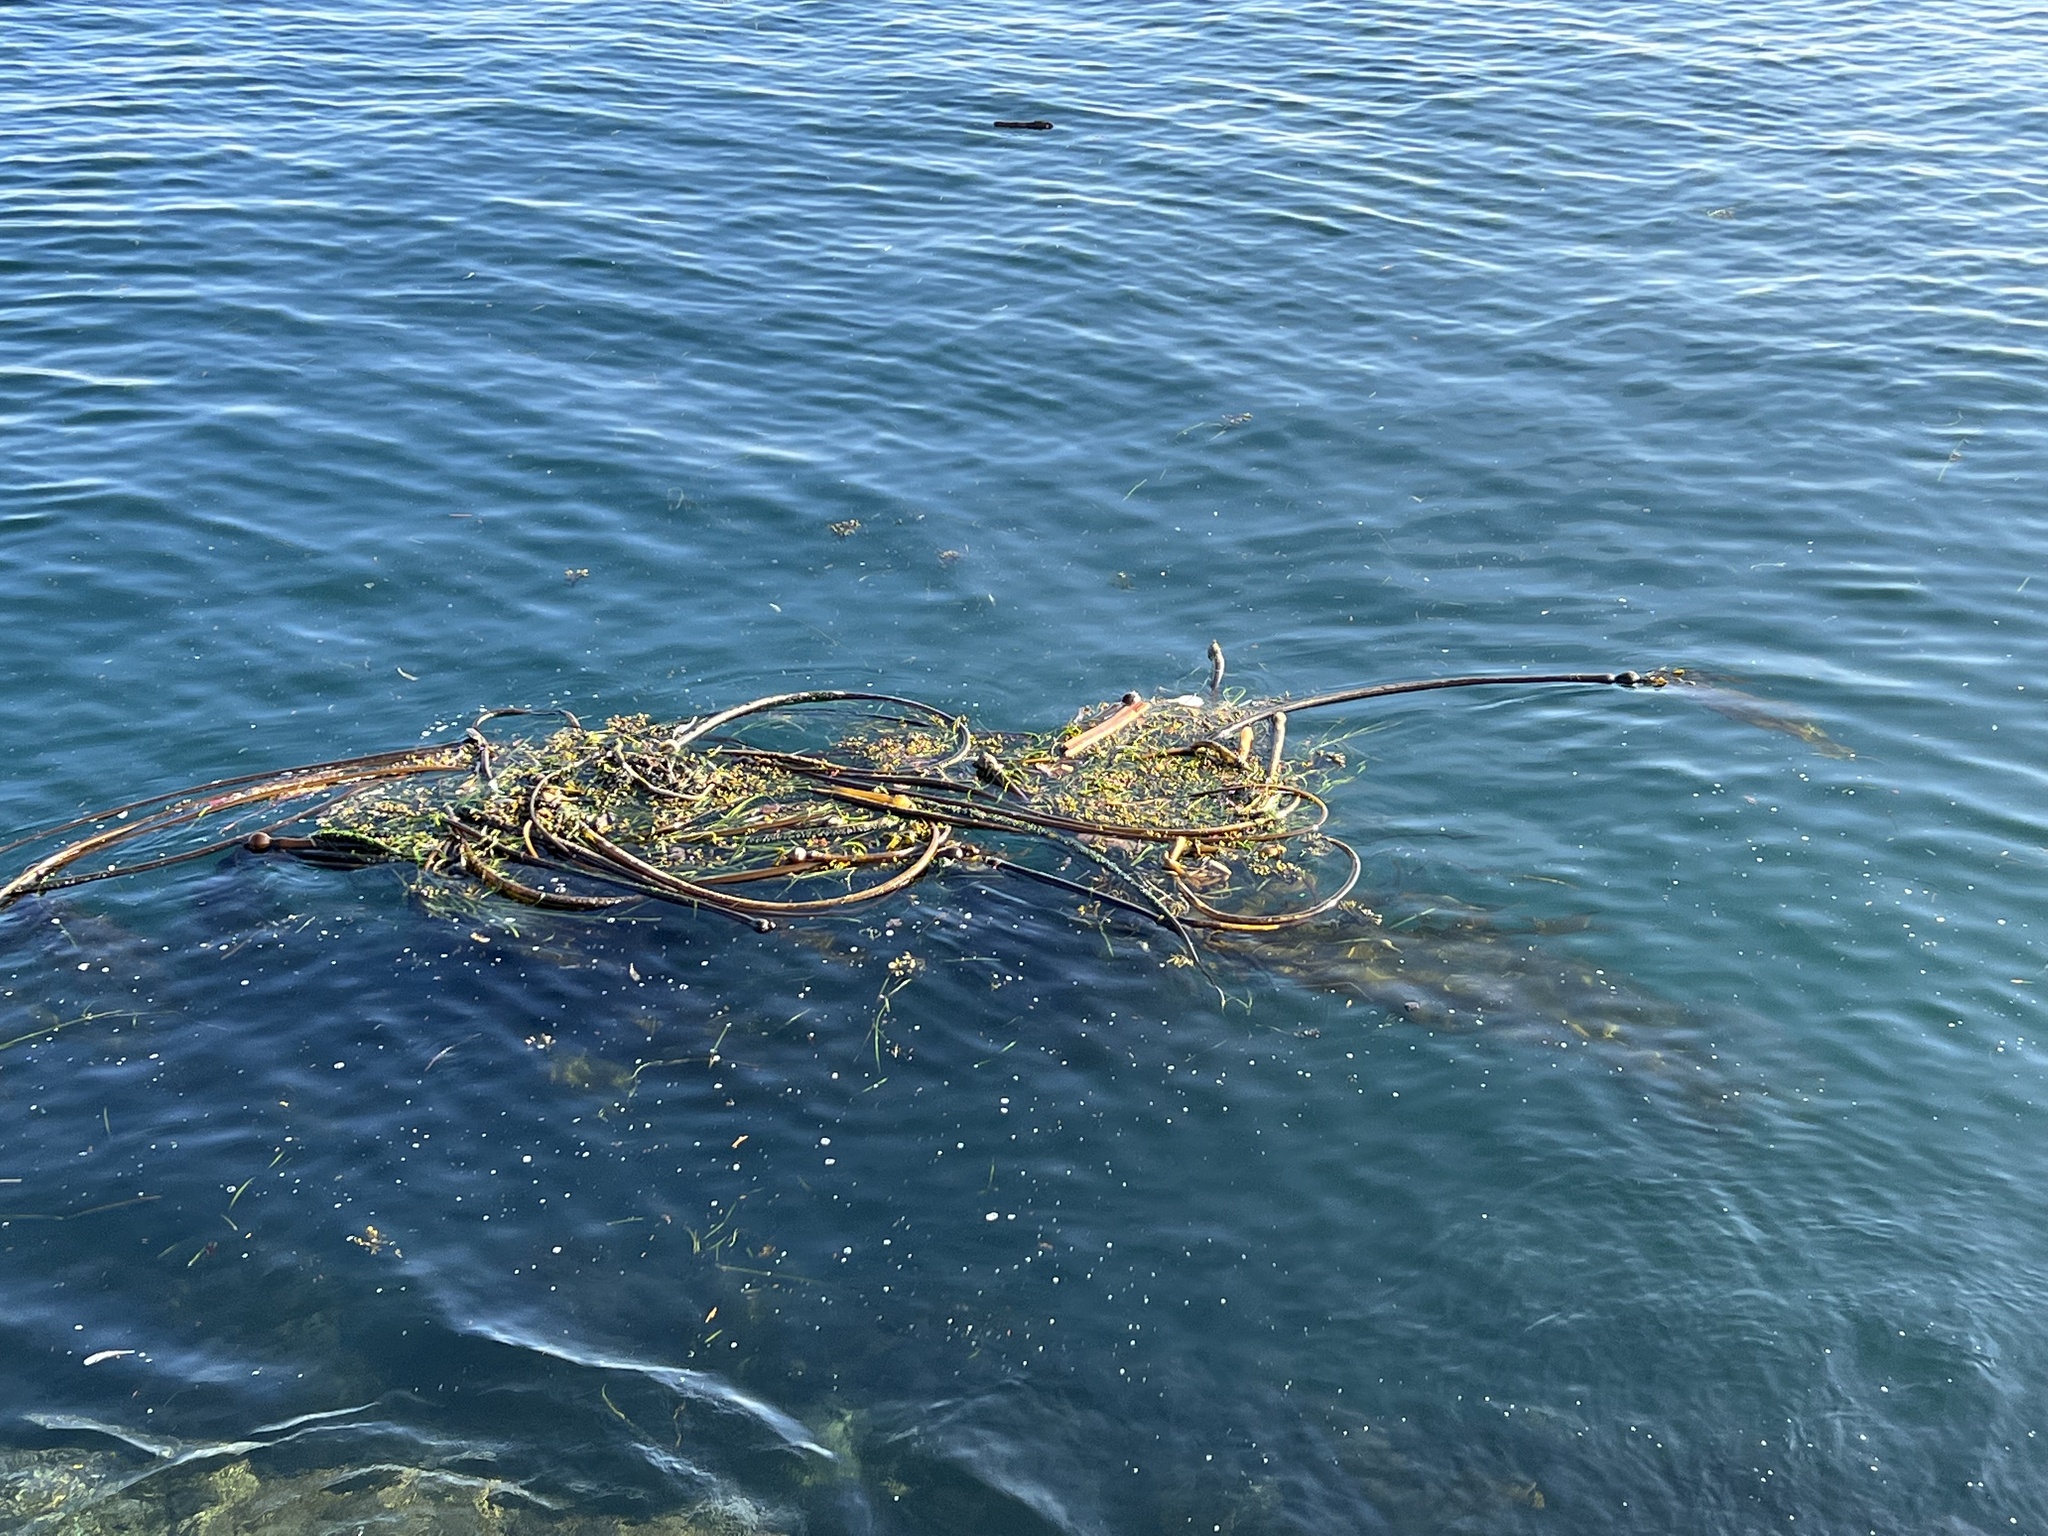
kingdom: Chromista
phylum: Ochrophyta
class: Phaeophyceae
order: Laminariales
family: Laminariaceae
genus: Nereocystis
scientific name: Nereocystis luetkeana
